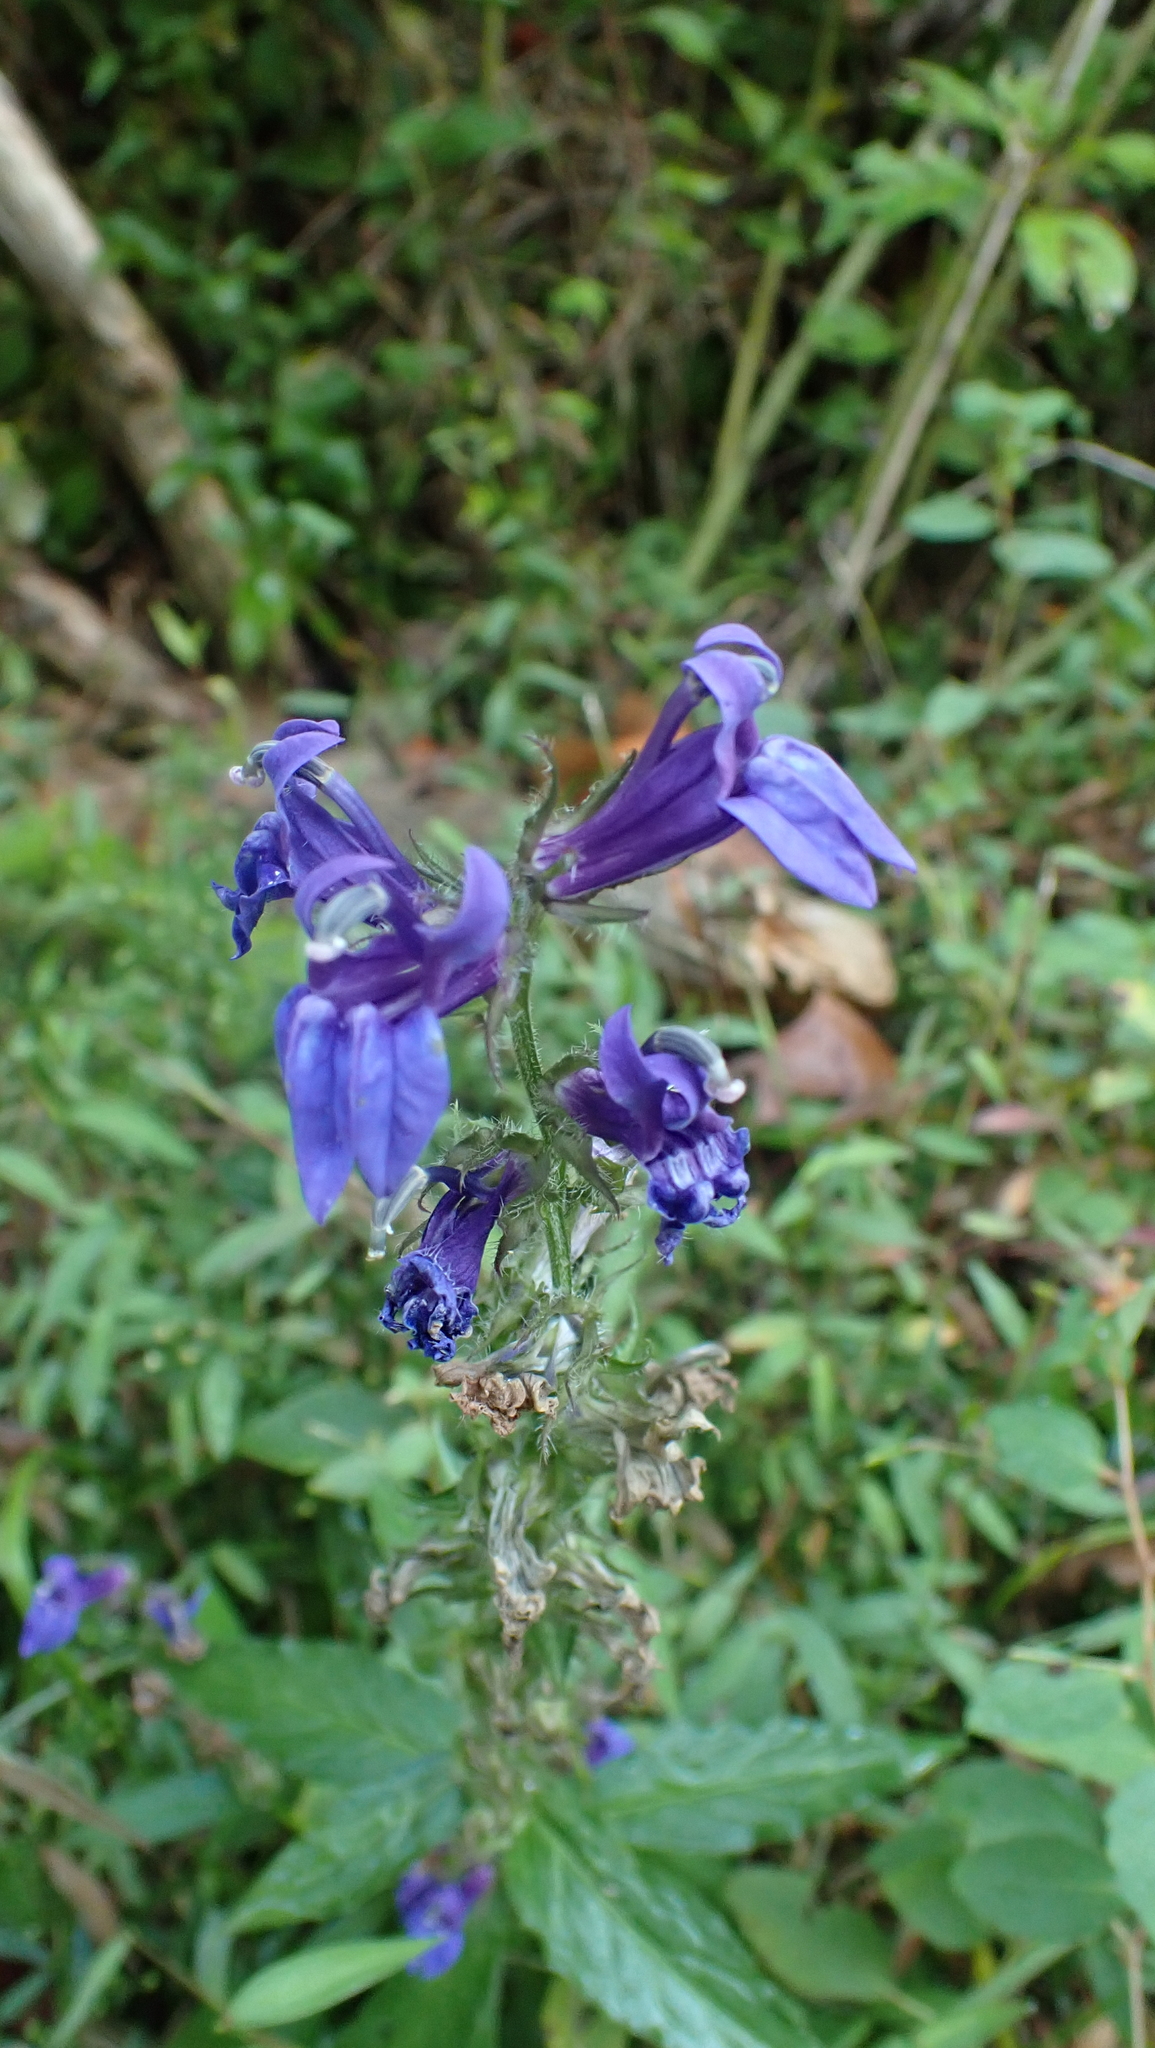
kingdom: Plantae
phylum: Tracheophyta
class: Magnoliopsida
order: Asterales
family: Campanulaceae
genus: Lobelia
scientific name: Lobelia siphilitica
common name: Great lobelia
